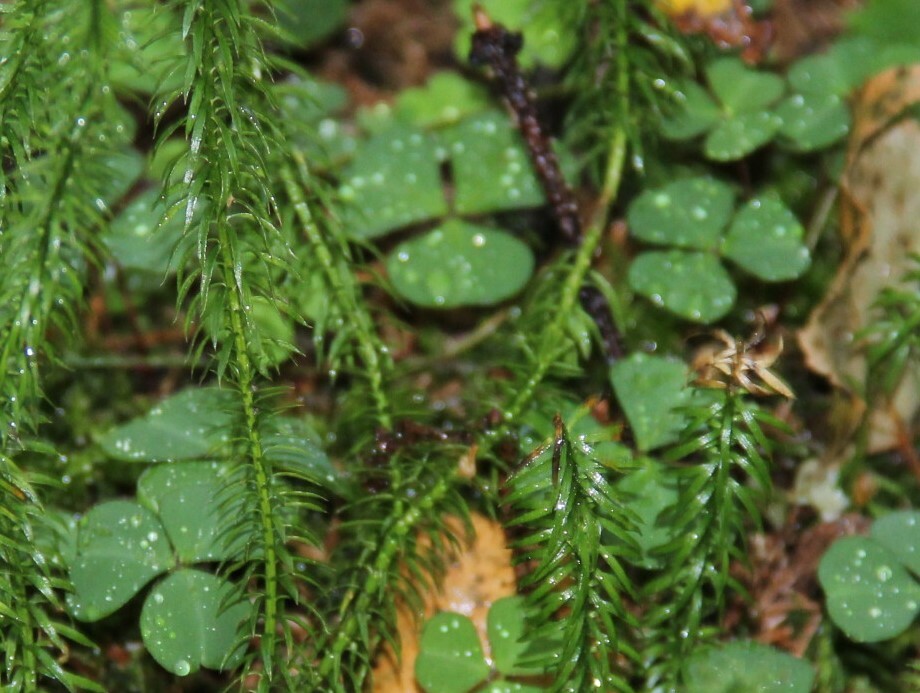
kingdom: Plantae
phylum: Tracheophyta
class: Magnoliopsida
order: Oxalidales
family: Oxalidaceae
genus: Oxalis
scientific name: Oxalis acetosella
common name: Wood-sorrel
